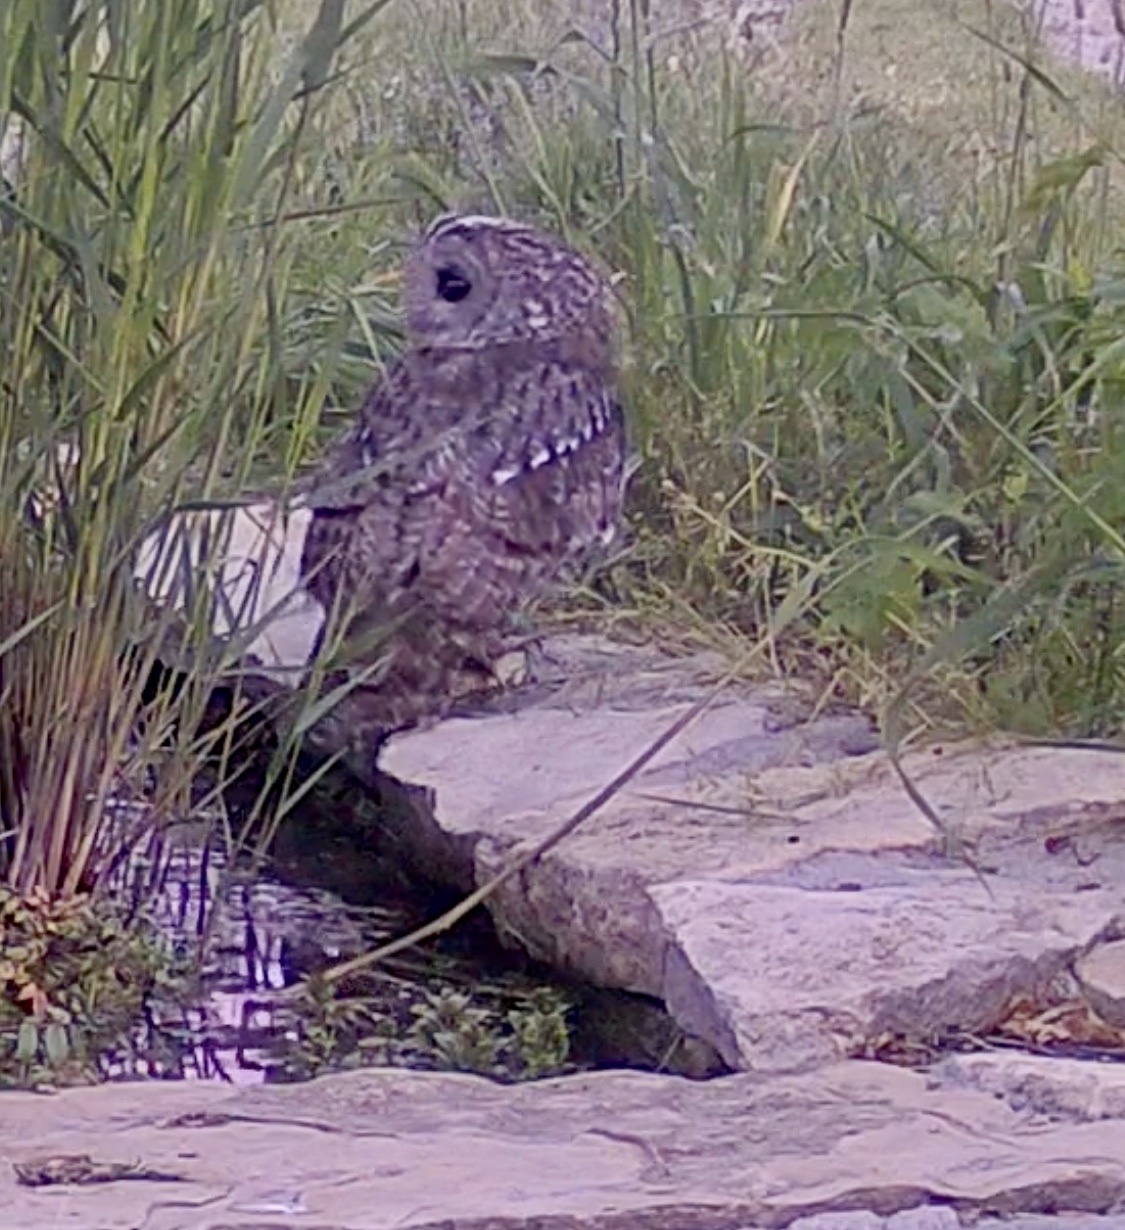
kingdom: Animalia
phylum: Chordata
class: Aves
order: Strigiformes
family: Strigidae
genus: Strix
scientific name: Strix aluco
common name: Tawny owl
